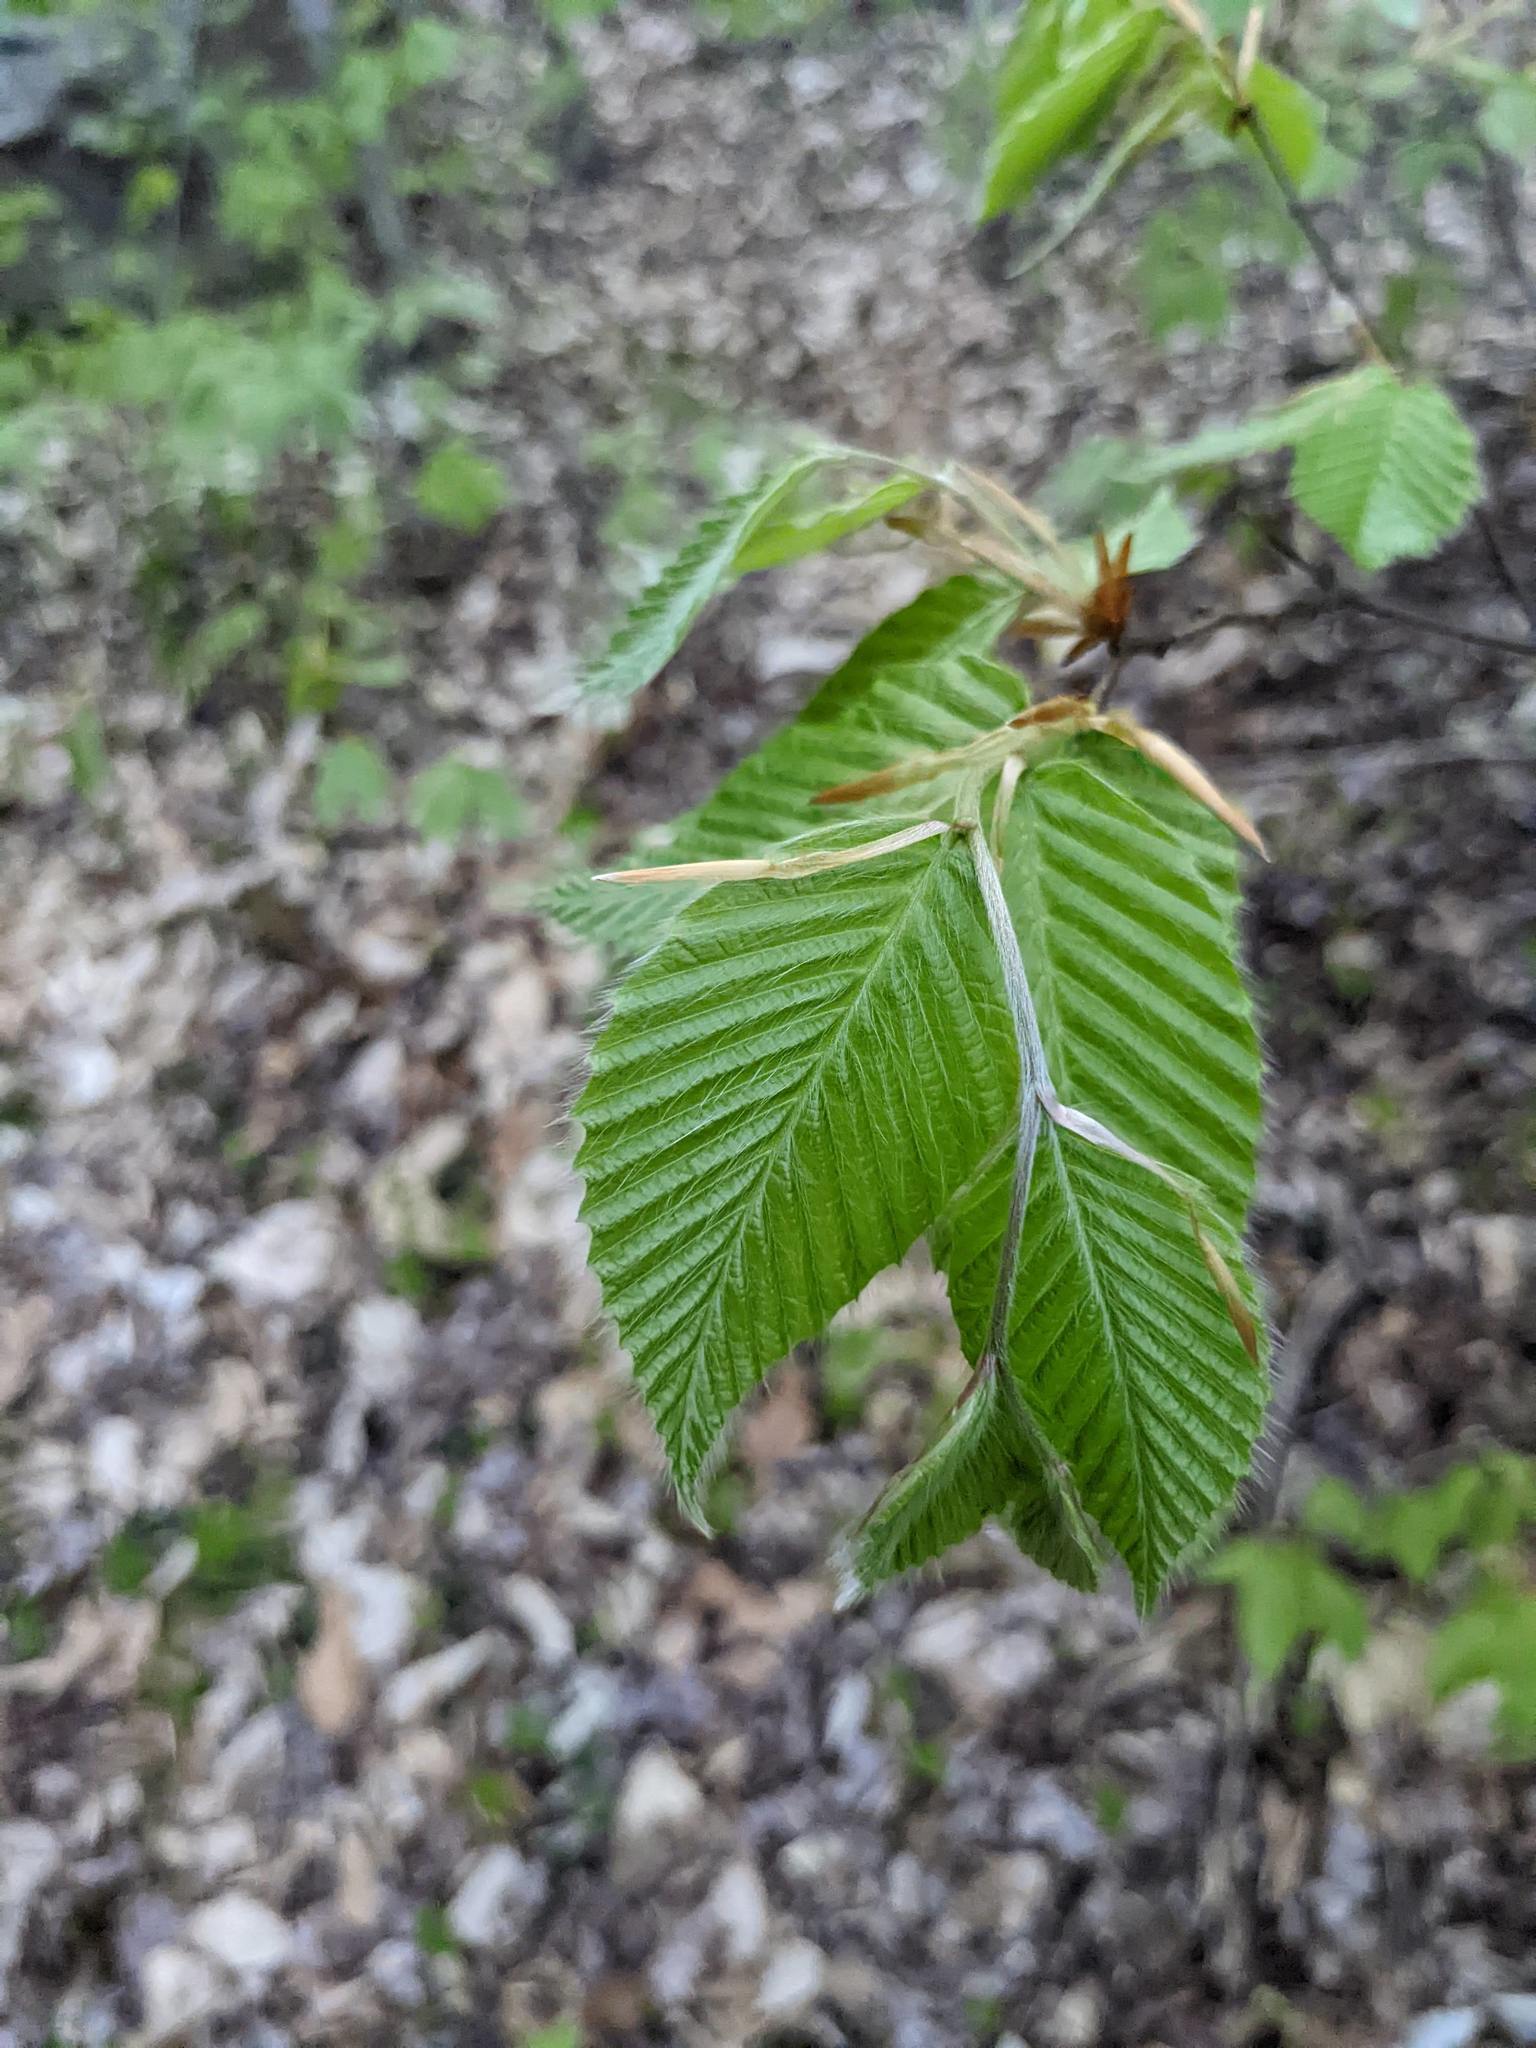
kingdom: Plantae
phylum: Tracheophyta
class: Magnoliopsida
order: Fagales
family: Fagaceae
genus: Fagus
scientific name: Fagus grandifolia
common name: American beech
